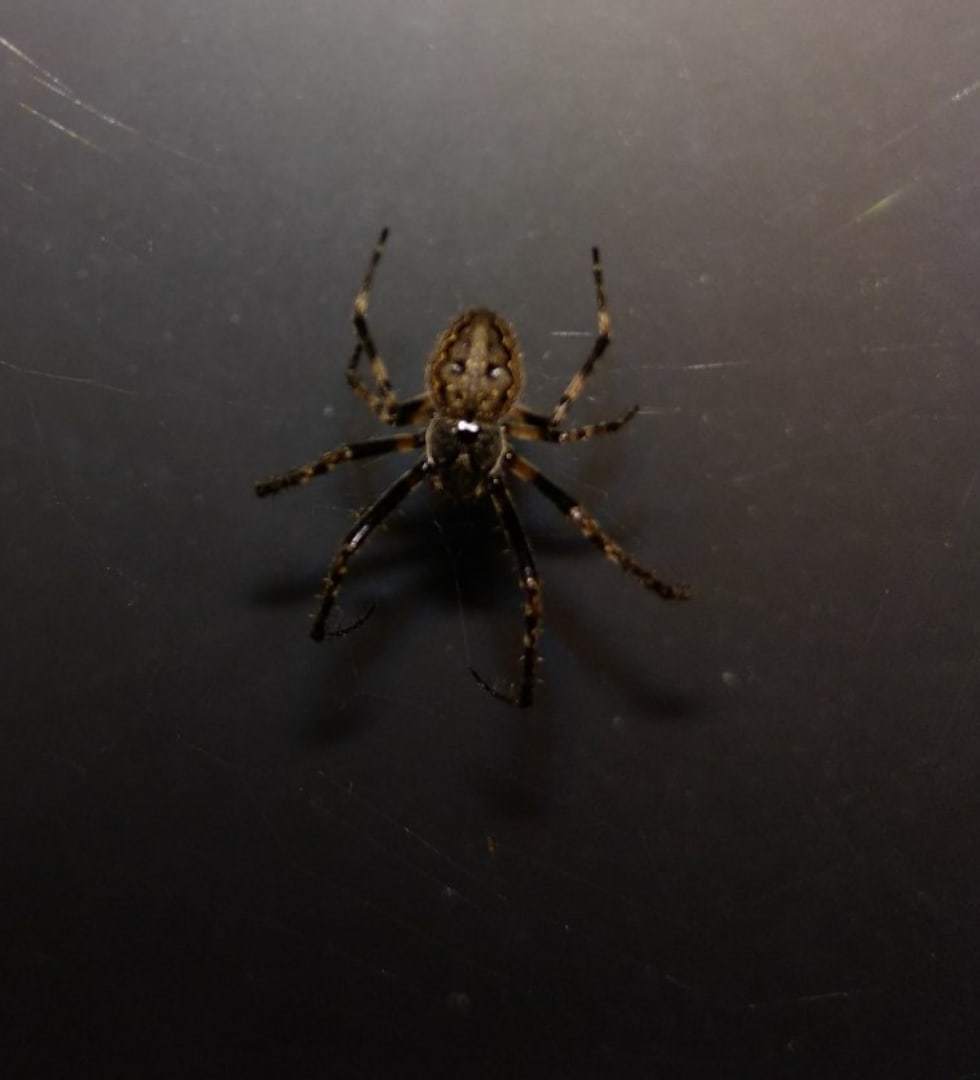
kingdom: Animalia
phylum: Arthropoda
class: Arachnida
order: Araneae
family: Araneidae
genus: Nuctenea
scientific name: Nuctenea umbratica
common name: Toad spider
